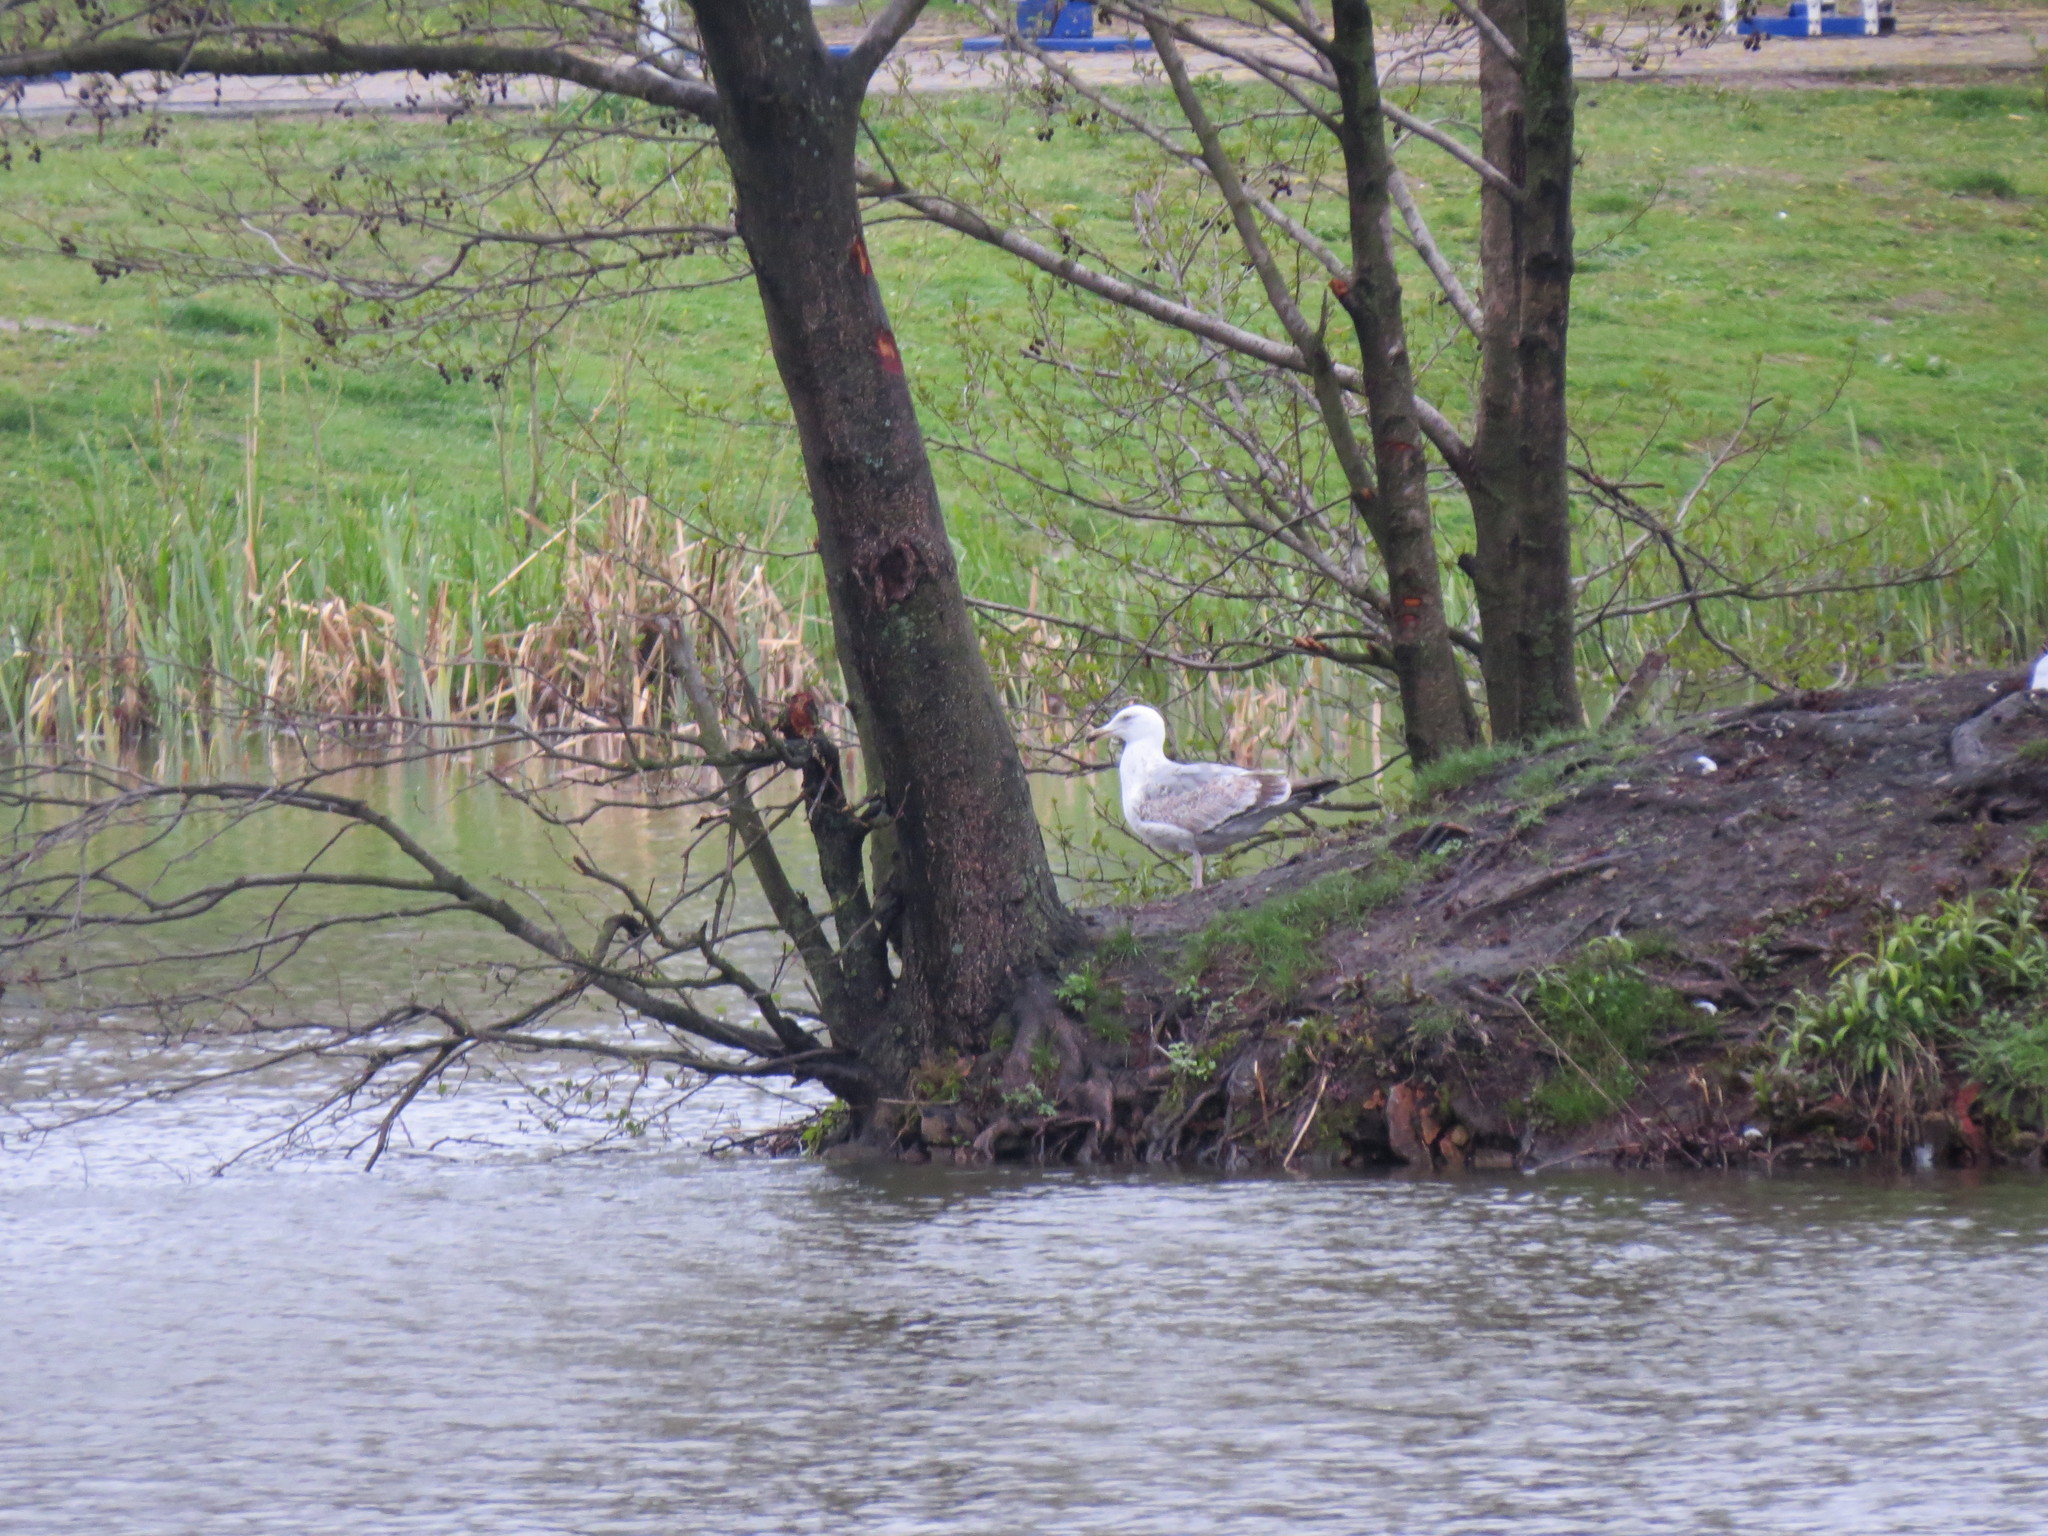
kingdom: Animalia
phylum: Chordata
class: Aves
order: Charadriiformes
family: Laridae
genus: Larus
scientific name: Larus argentatus
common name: Herring gull
